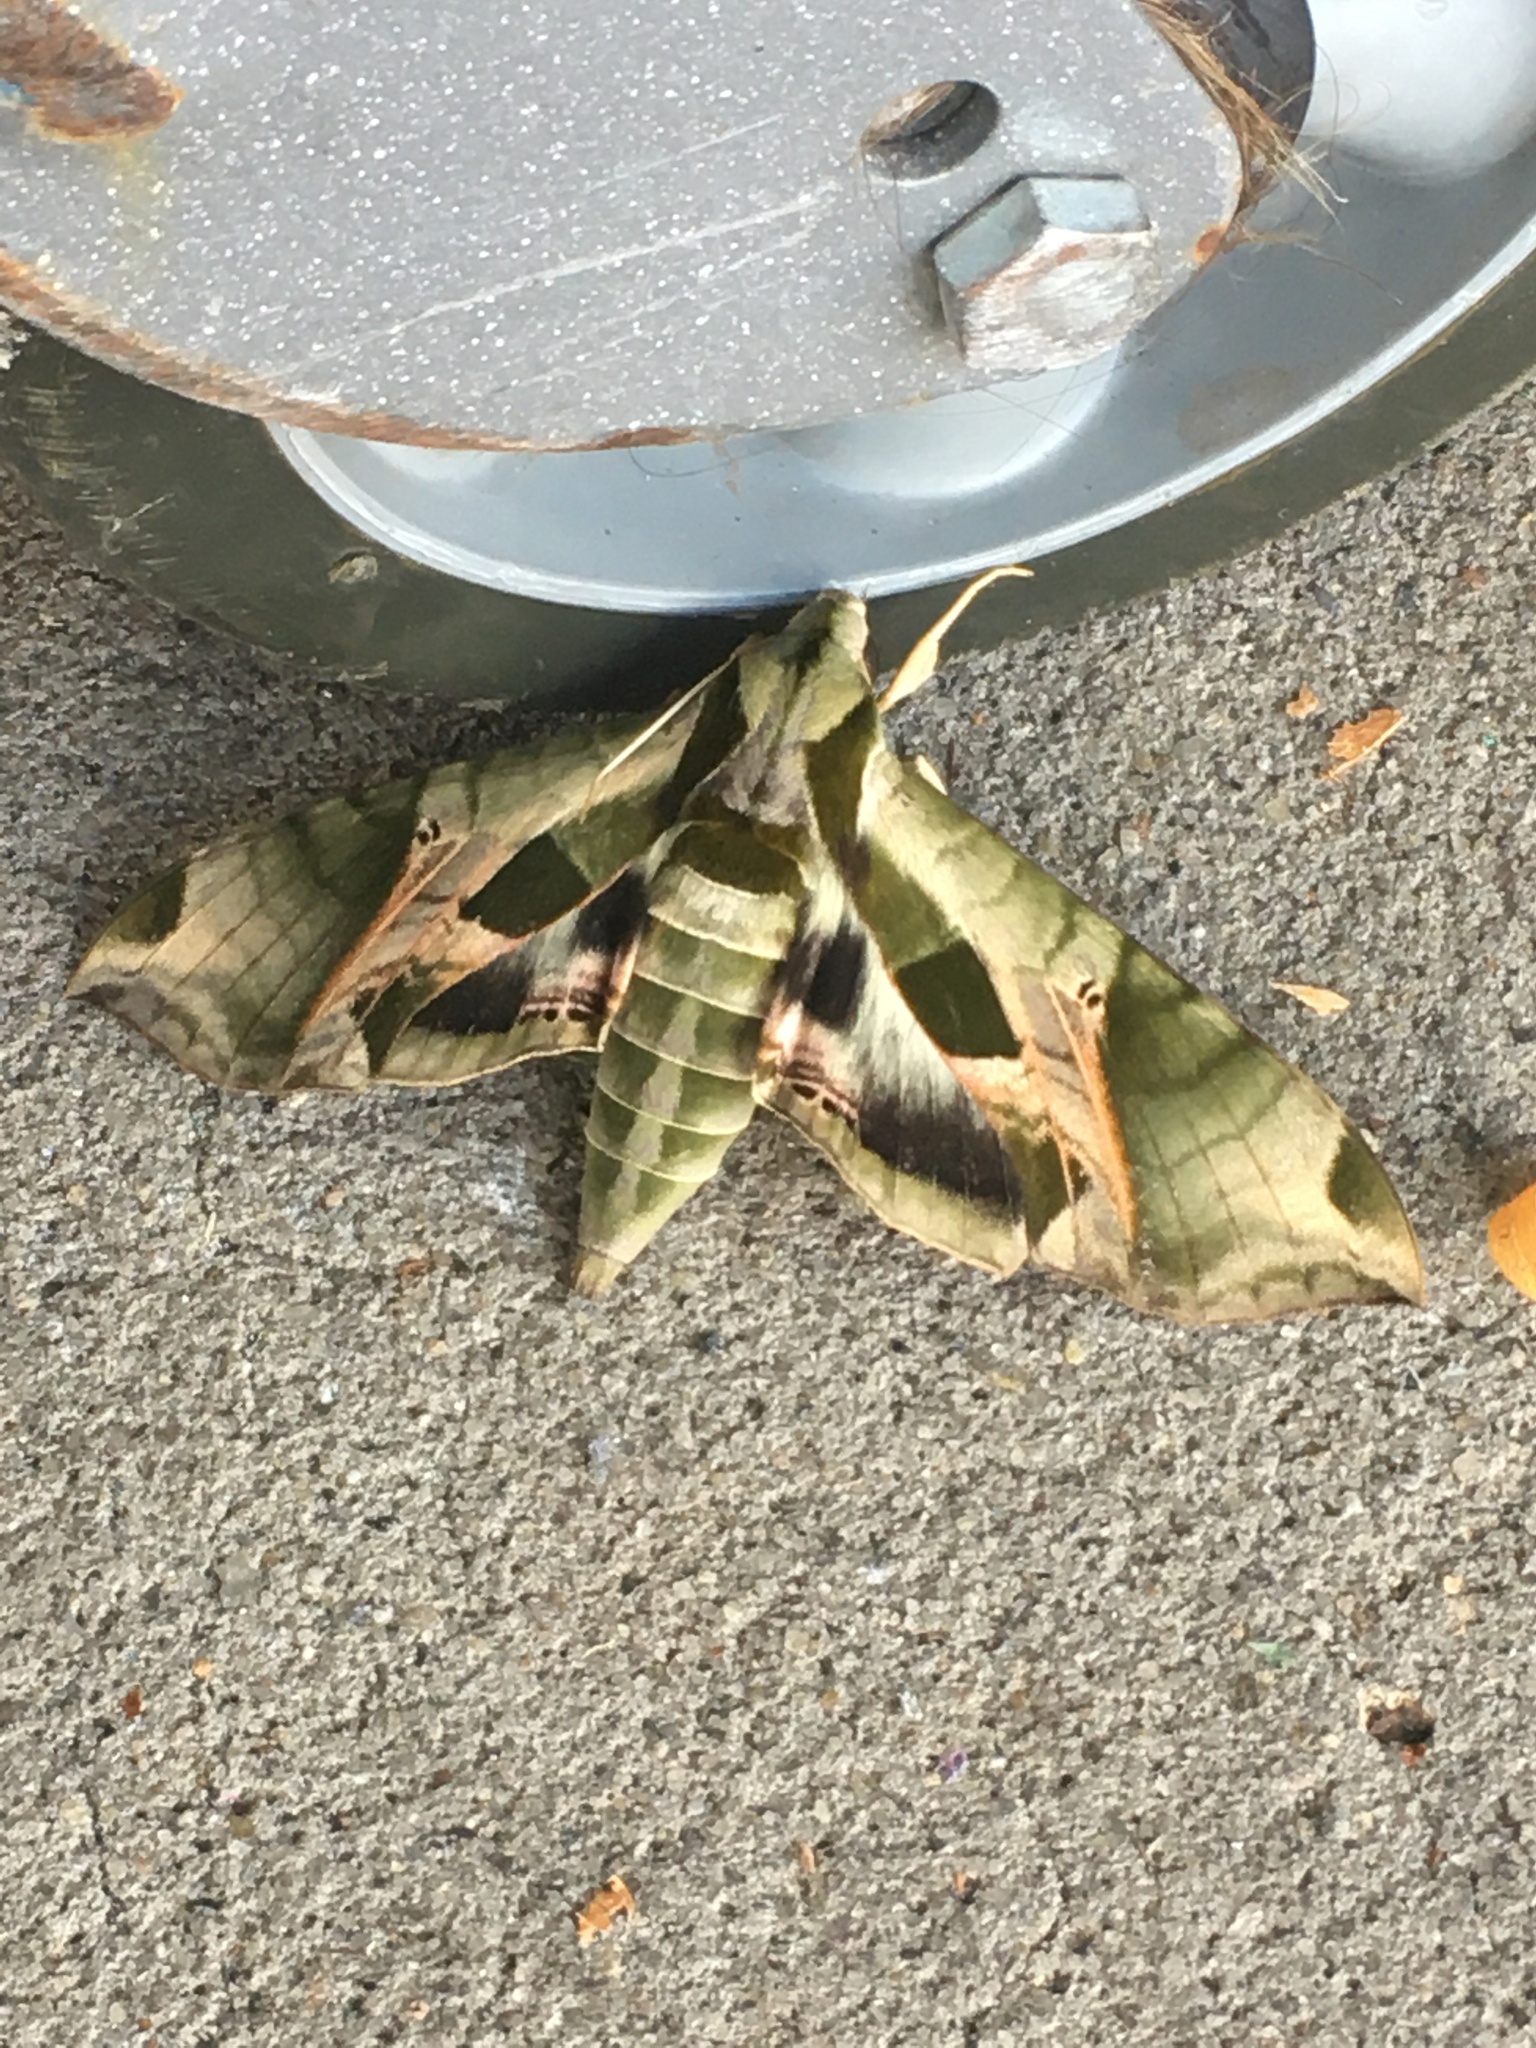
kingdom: Animalia
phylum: Arthropoda
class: Insecta
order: Lepidoptera
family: Sphingidae
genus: Eumorpha
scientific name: Eumorpha pandorus
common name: Pandora sphinx
